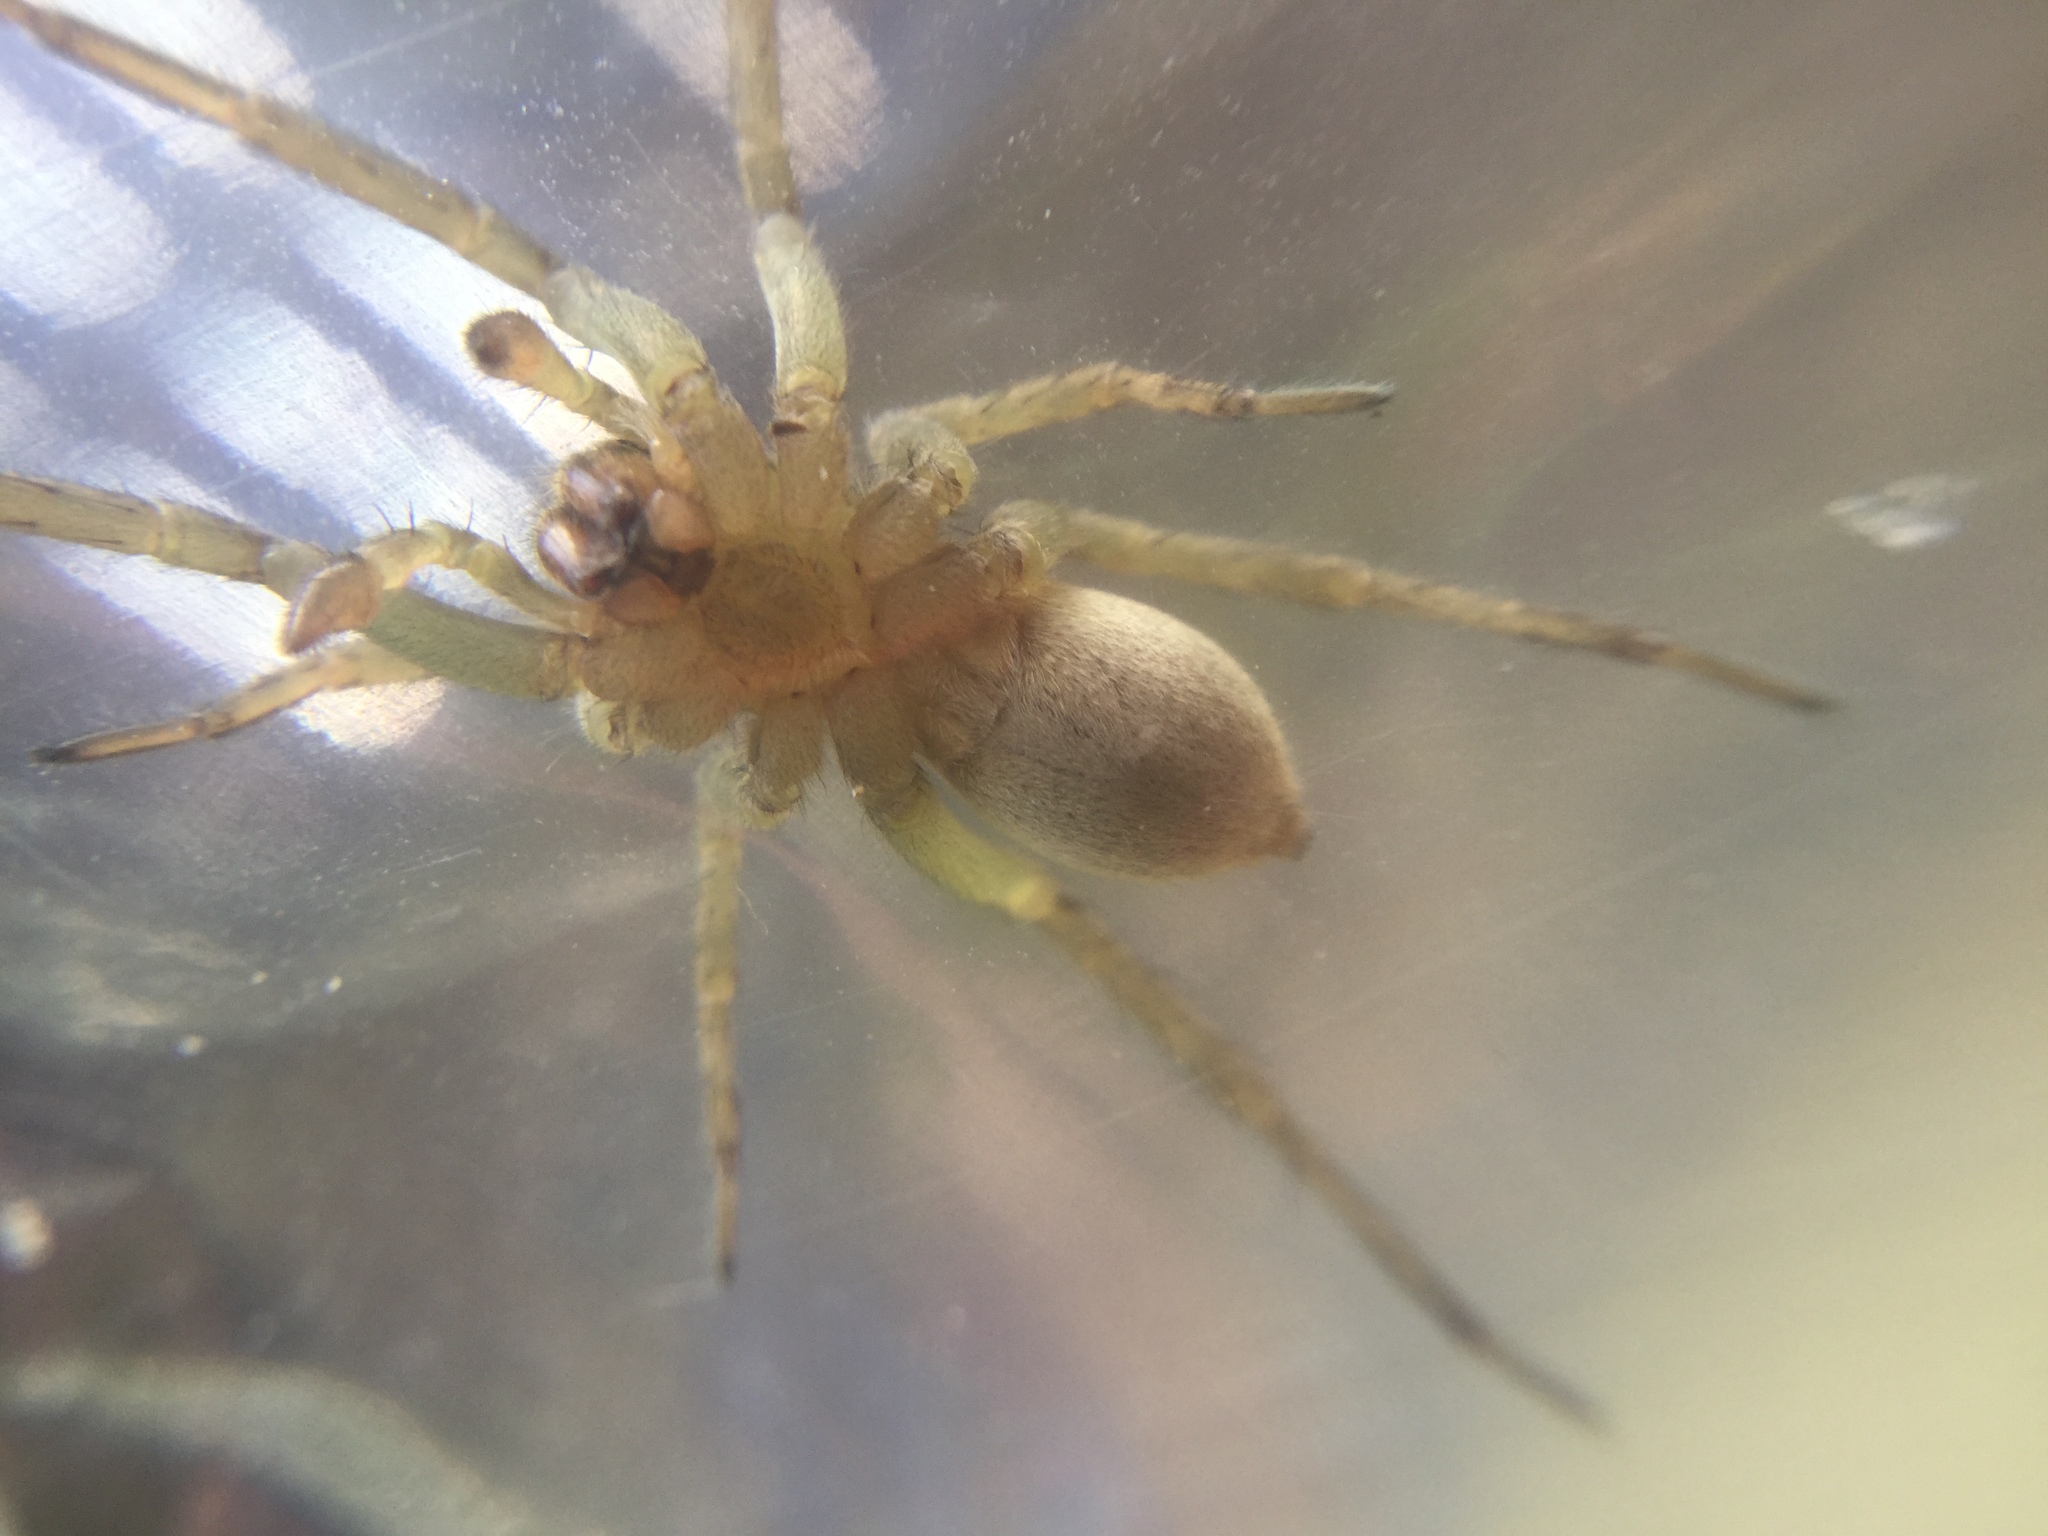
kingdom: Animalia
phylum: Arthropoda
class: Arachnida
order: Araneae
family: Lycosidae
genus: Tigrosa
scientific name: Tigrosa helluo
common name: Wetland giant wolf spider
